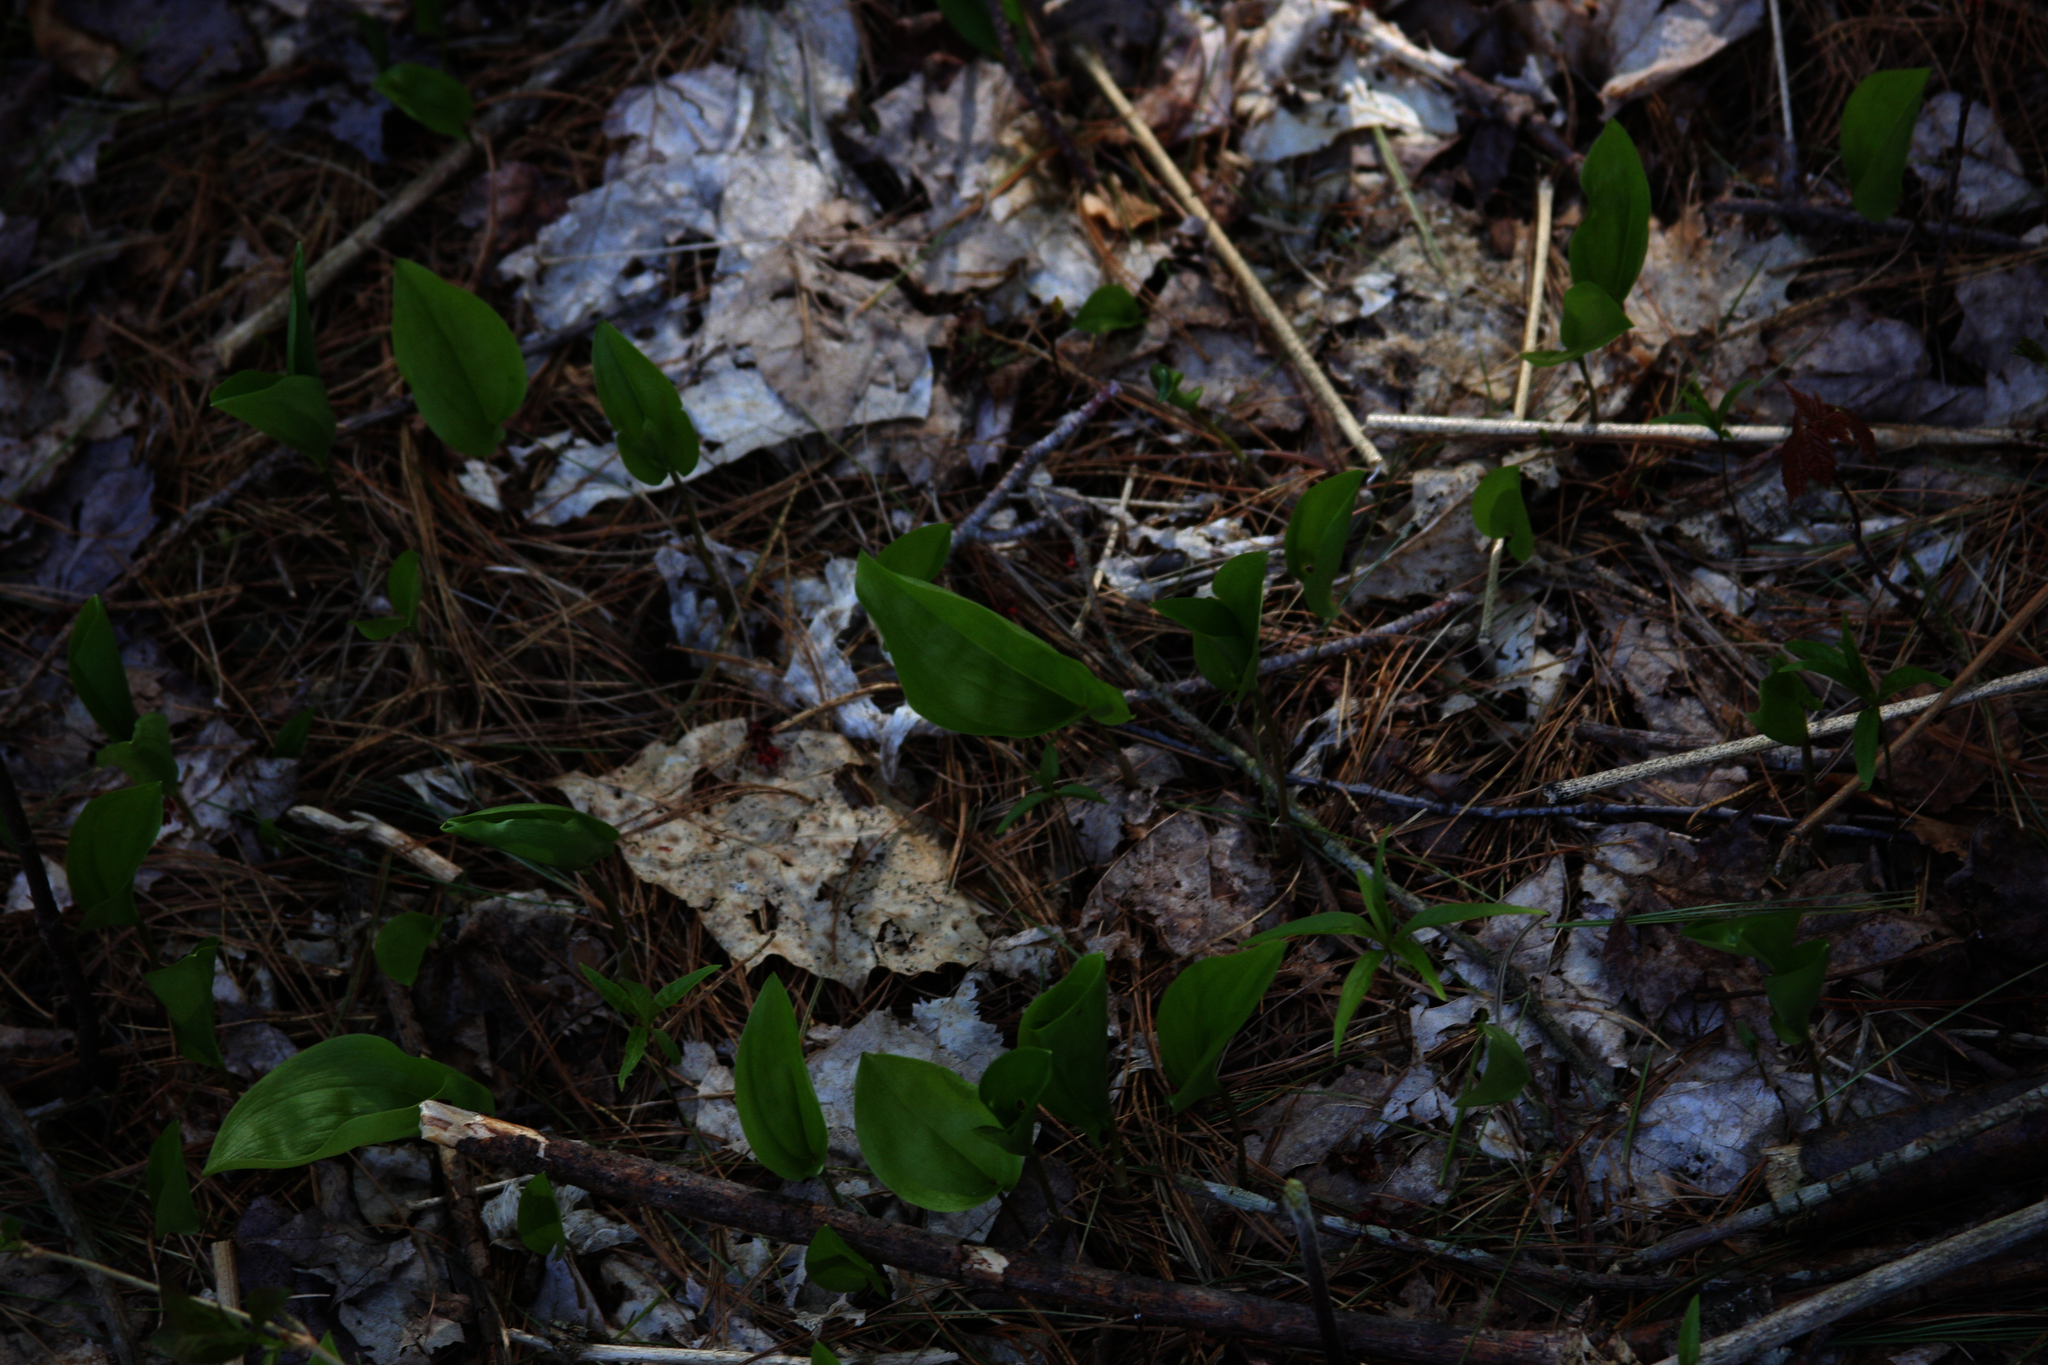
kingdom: Plantae
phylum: Tracheophyta
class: Liliopsida
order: Asparagales
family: Asparagaceae
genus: Maianthemum
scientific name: Maianthemum canadense
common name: False lily-of-the-valley
